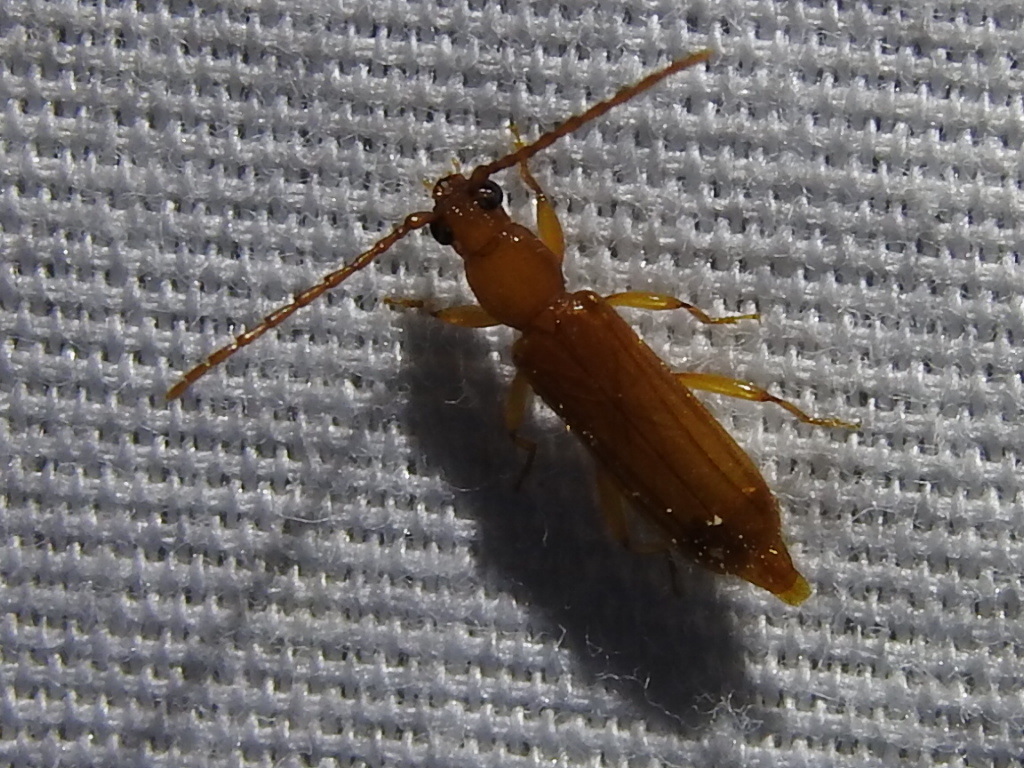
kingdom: Animalia
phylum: Arthropoda
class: Insecta
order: Coleoptera
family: Cerambycidae
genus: Smodicum
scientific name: Smodicum cucujiforme
